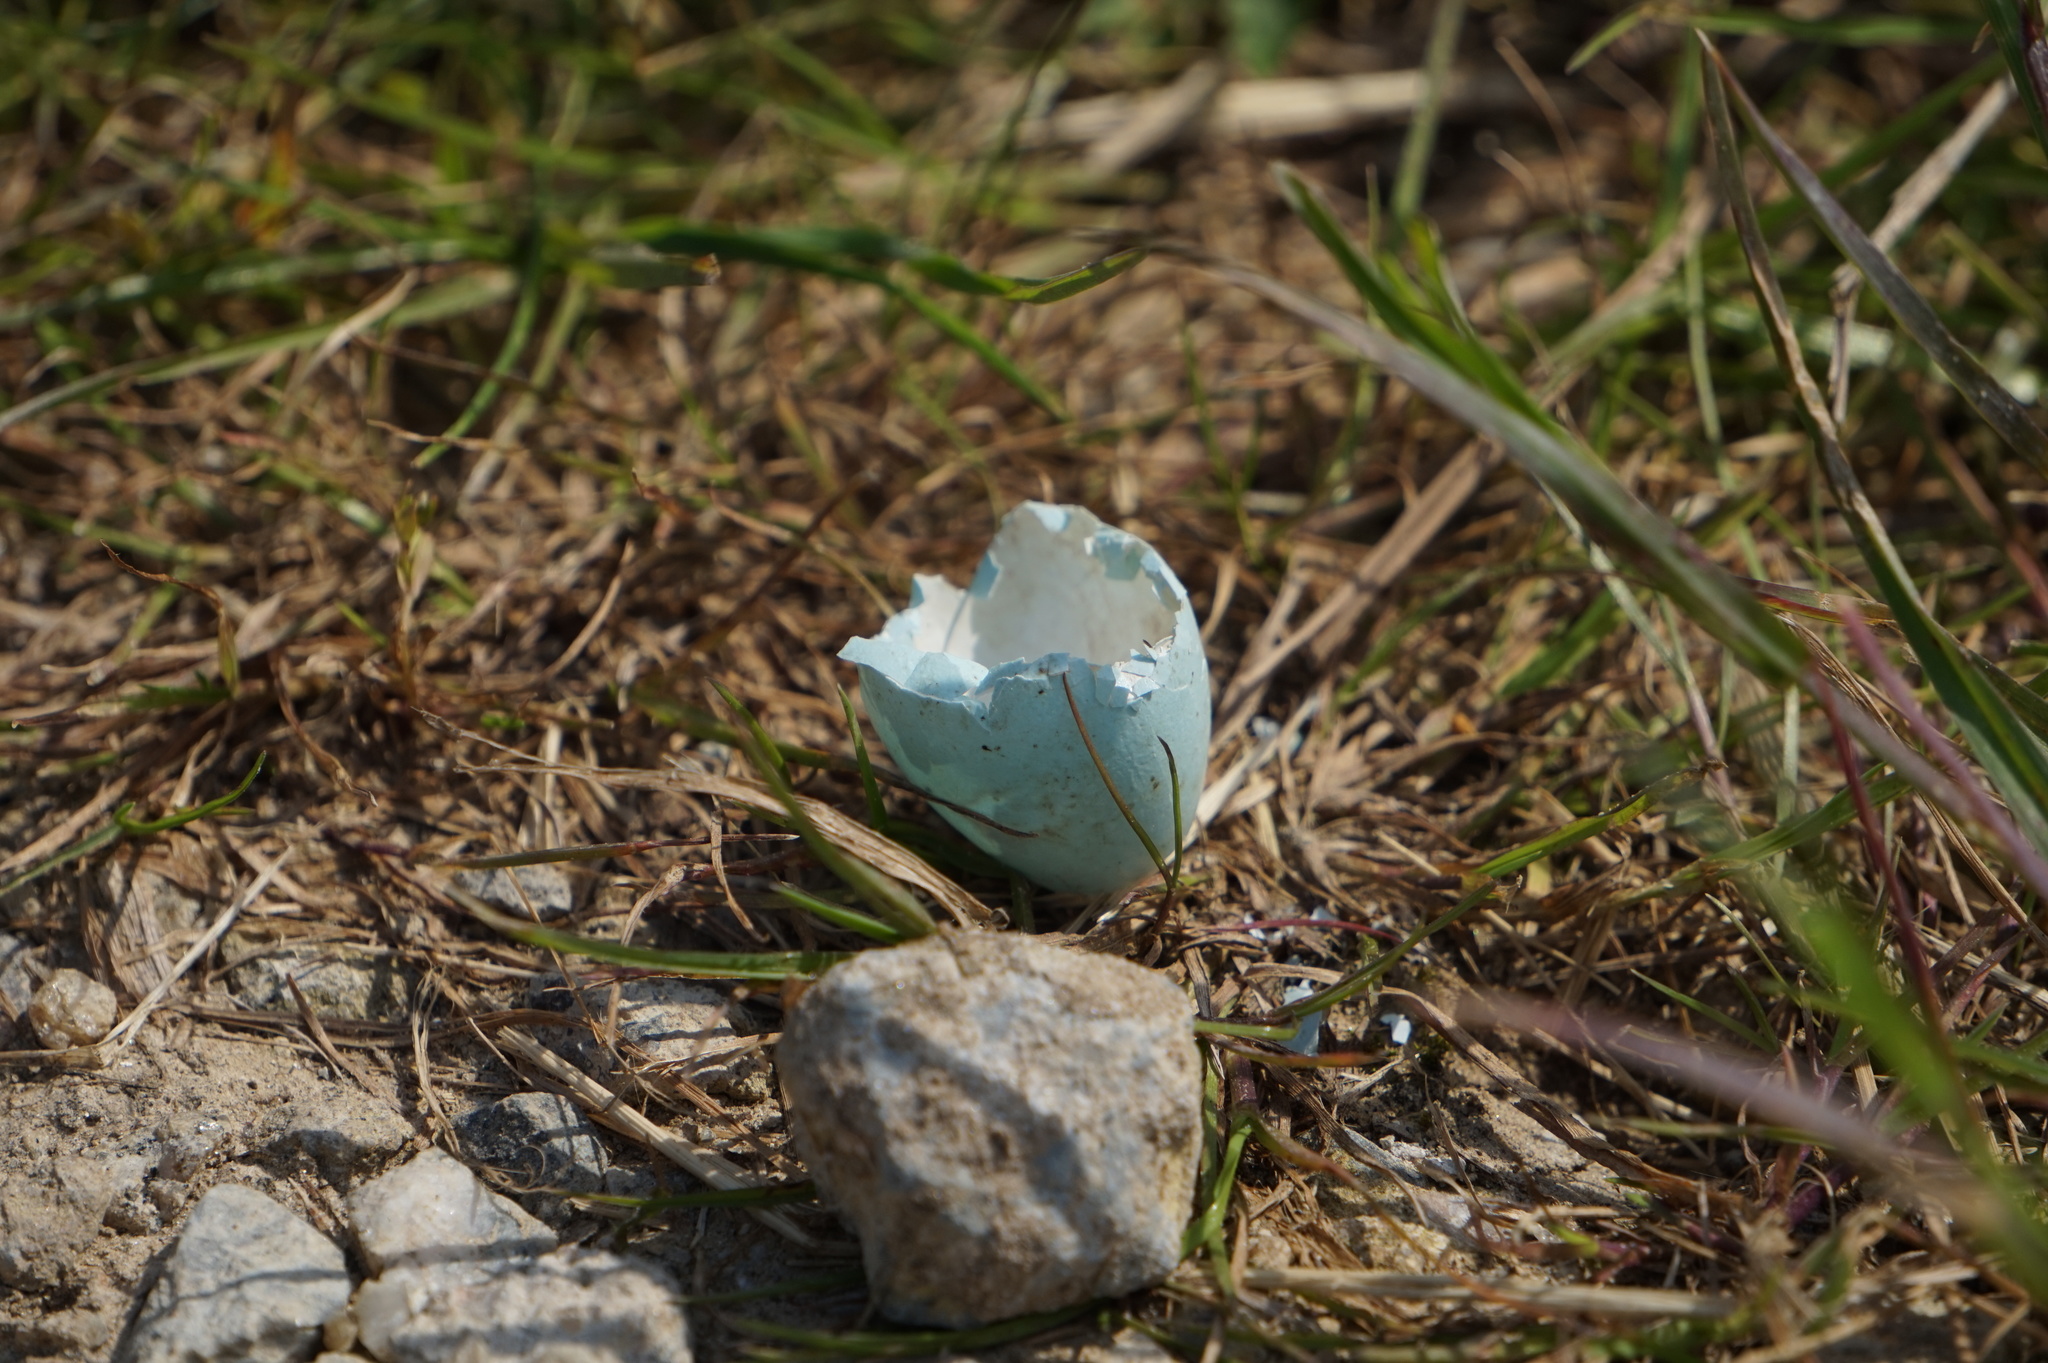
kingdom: Animalia
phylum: Chordata
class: Aves
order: Passeriformes
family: Turdidae
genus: Turdus
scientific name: Turdus migratorius
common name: American robin
